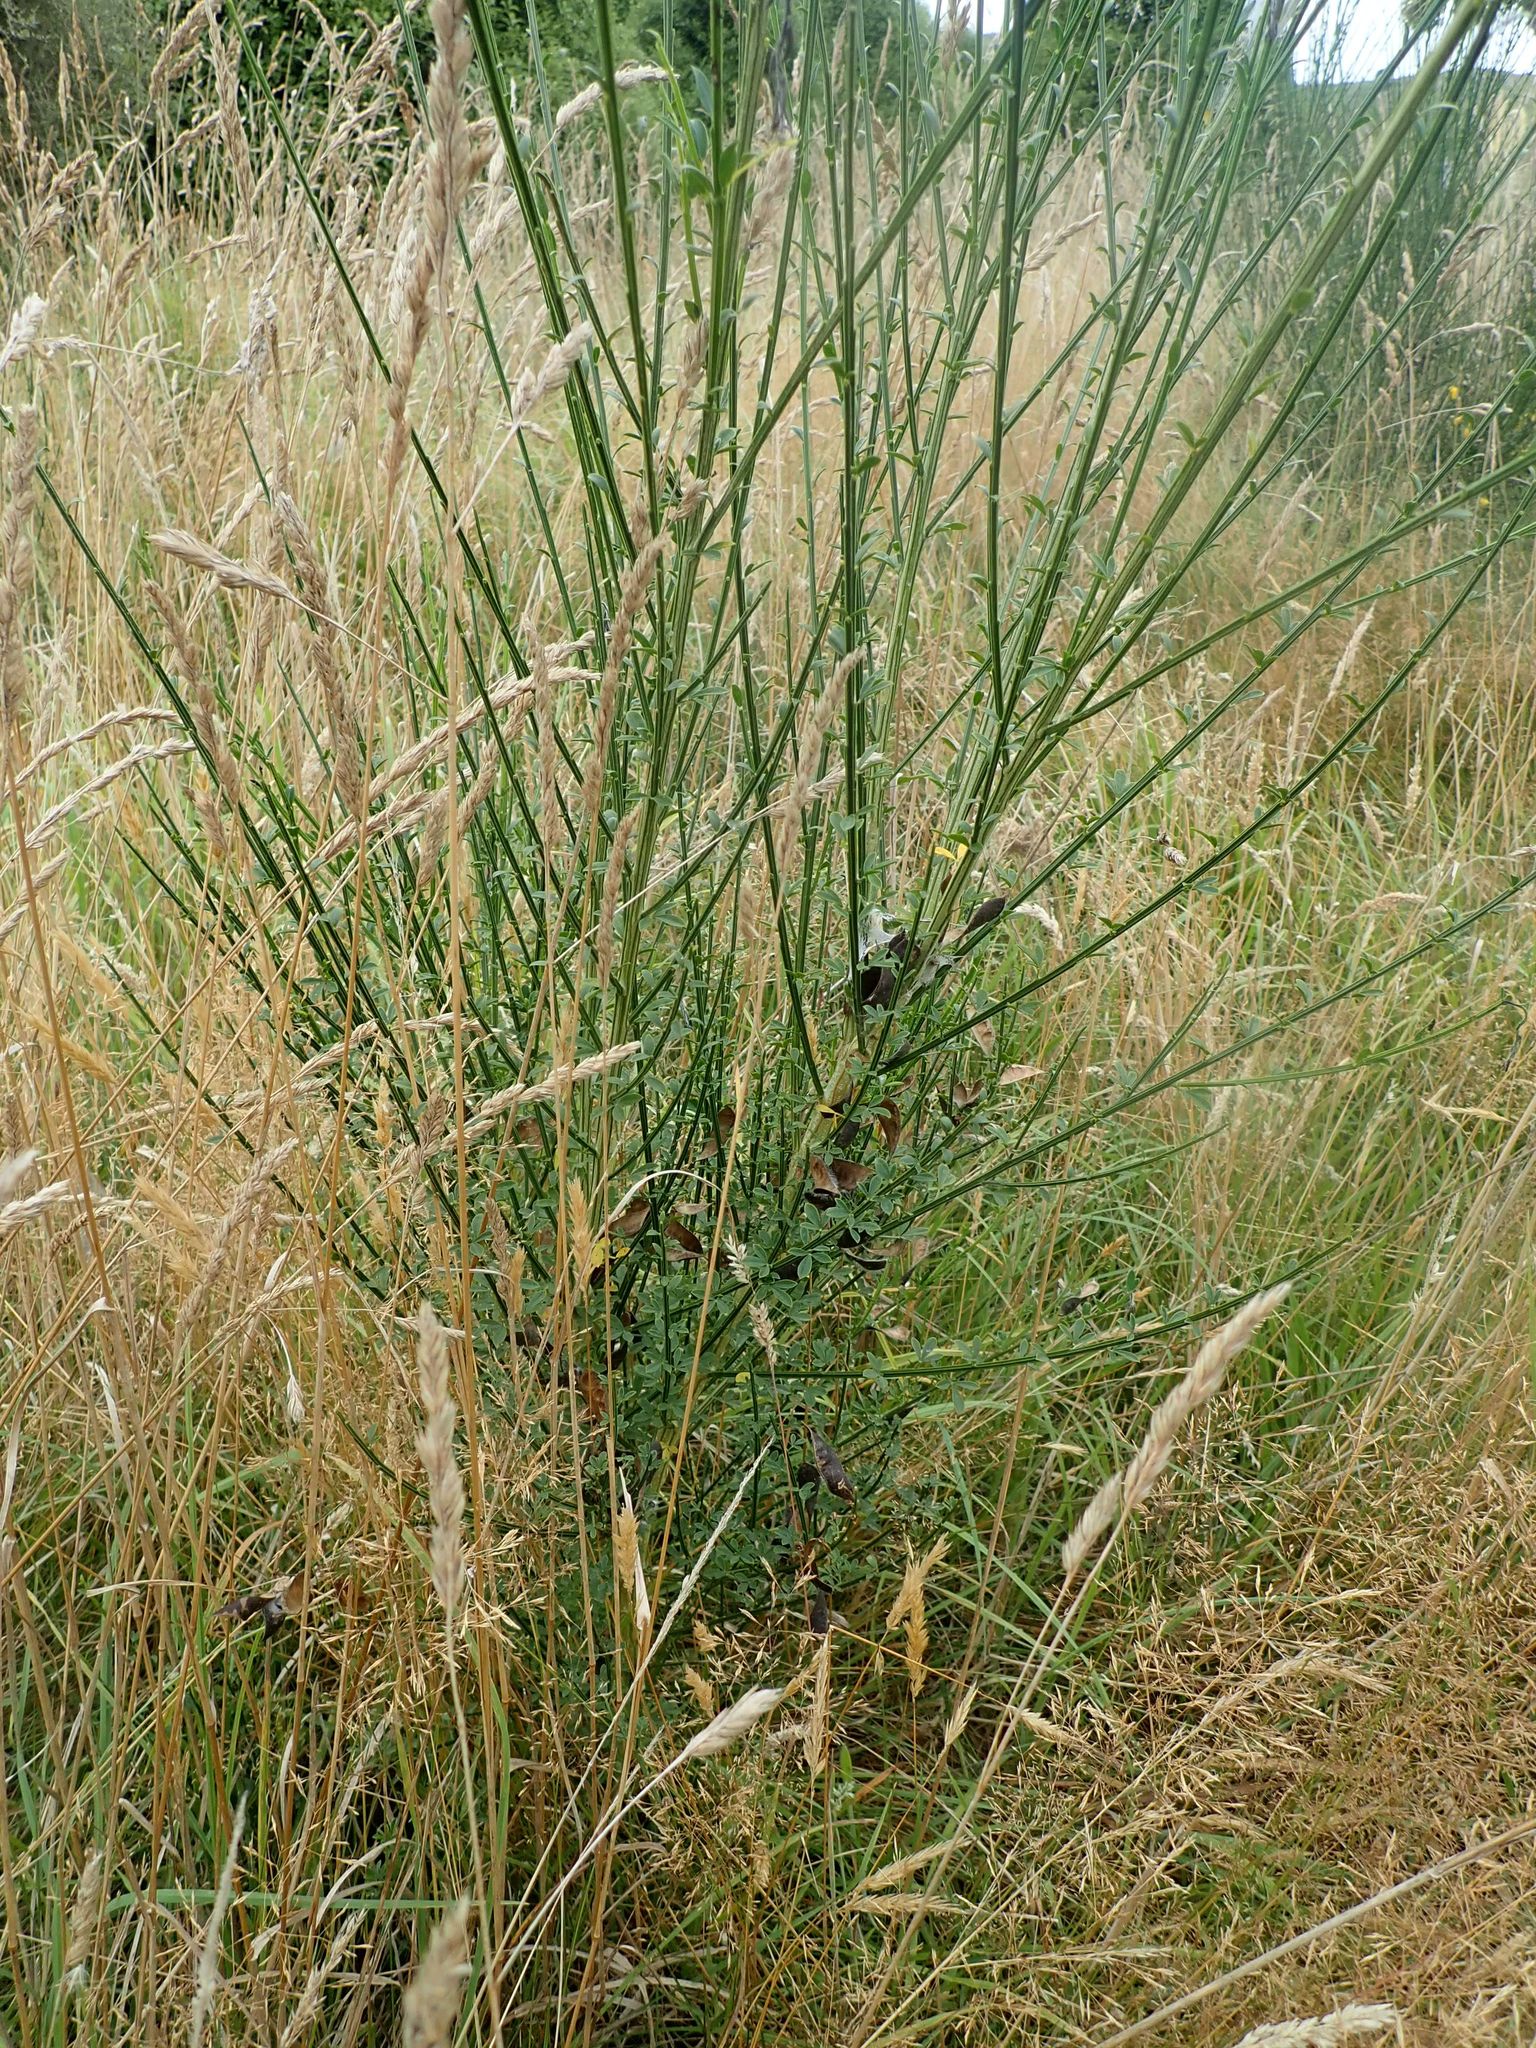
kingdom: Plantae
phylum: Tracheophyta
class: Magnoliopsida
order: Fabales
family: Fabaceae
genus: Cytisus
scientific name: Cytisus scoparius
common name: Scotch broom
